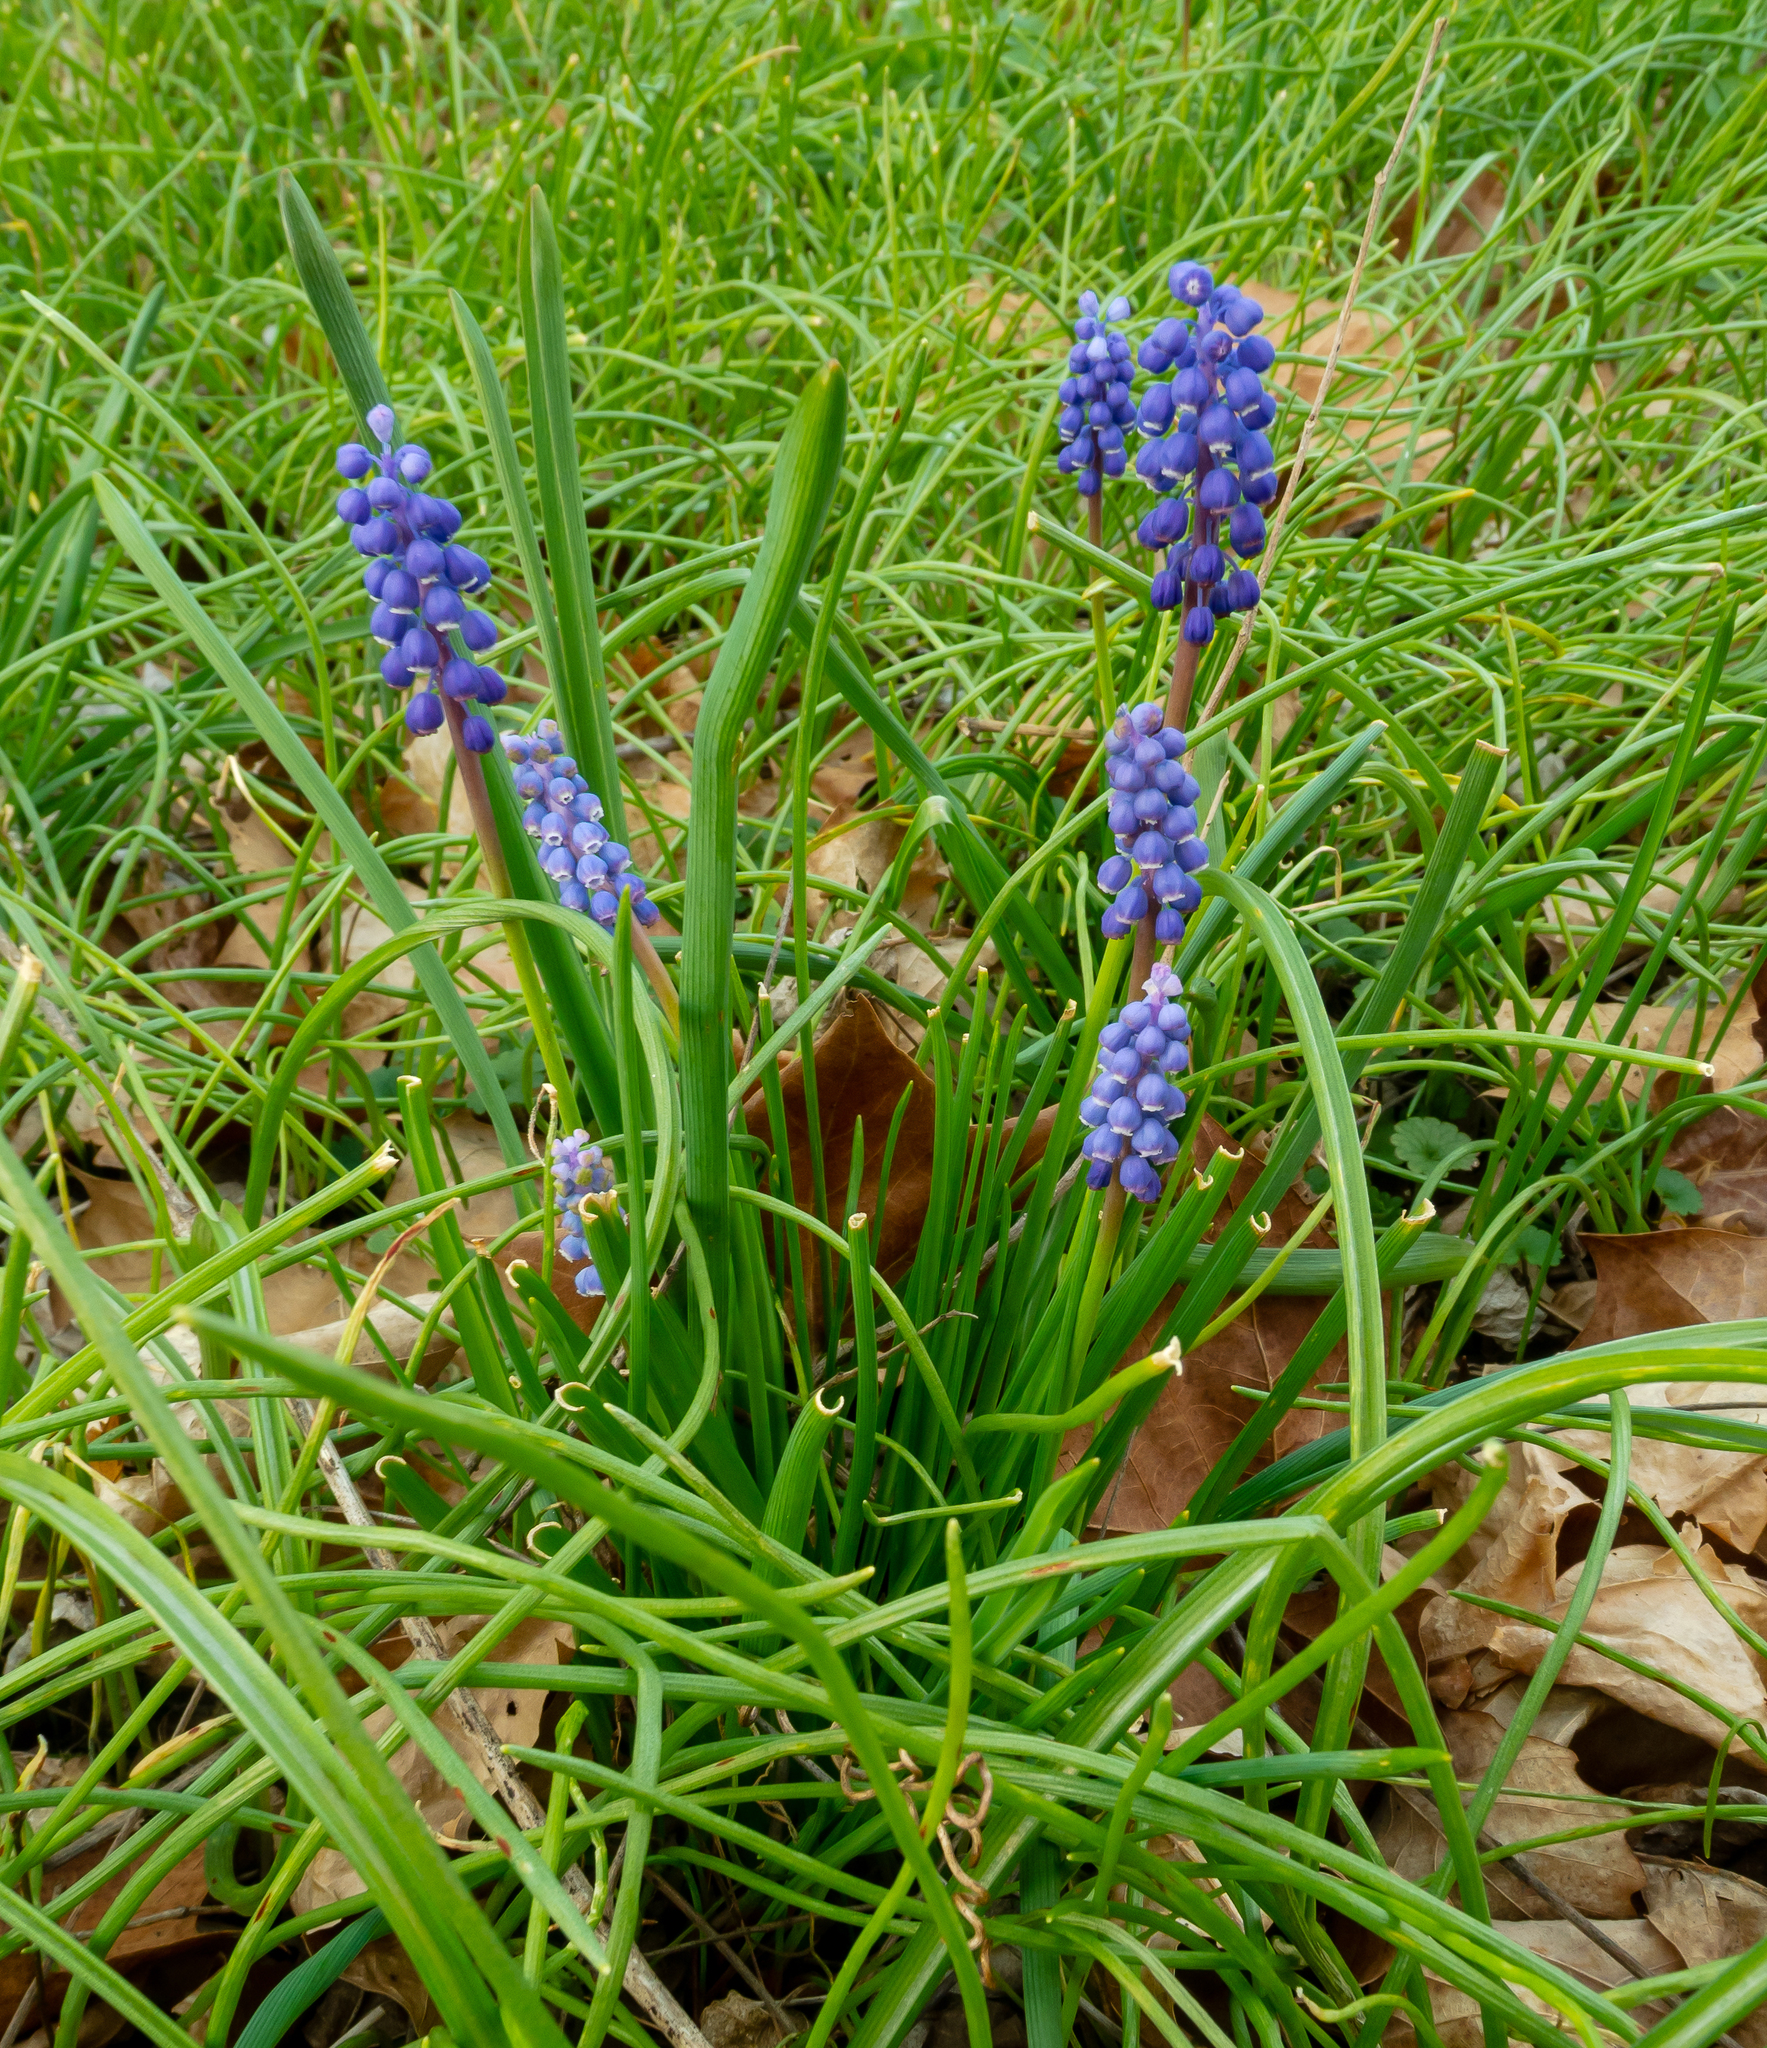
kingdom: Plantae
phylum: Tracheophyta
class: Liliopsida
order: Asparagales
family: Asparagaceae
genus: Muscari
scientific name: Muscari botryoides
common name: Compact grape-hyacinth
